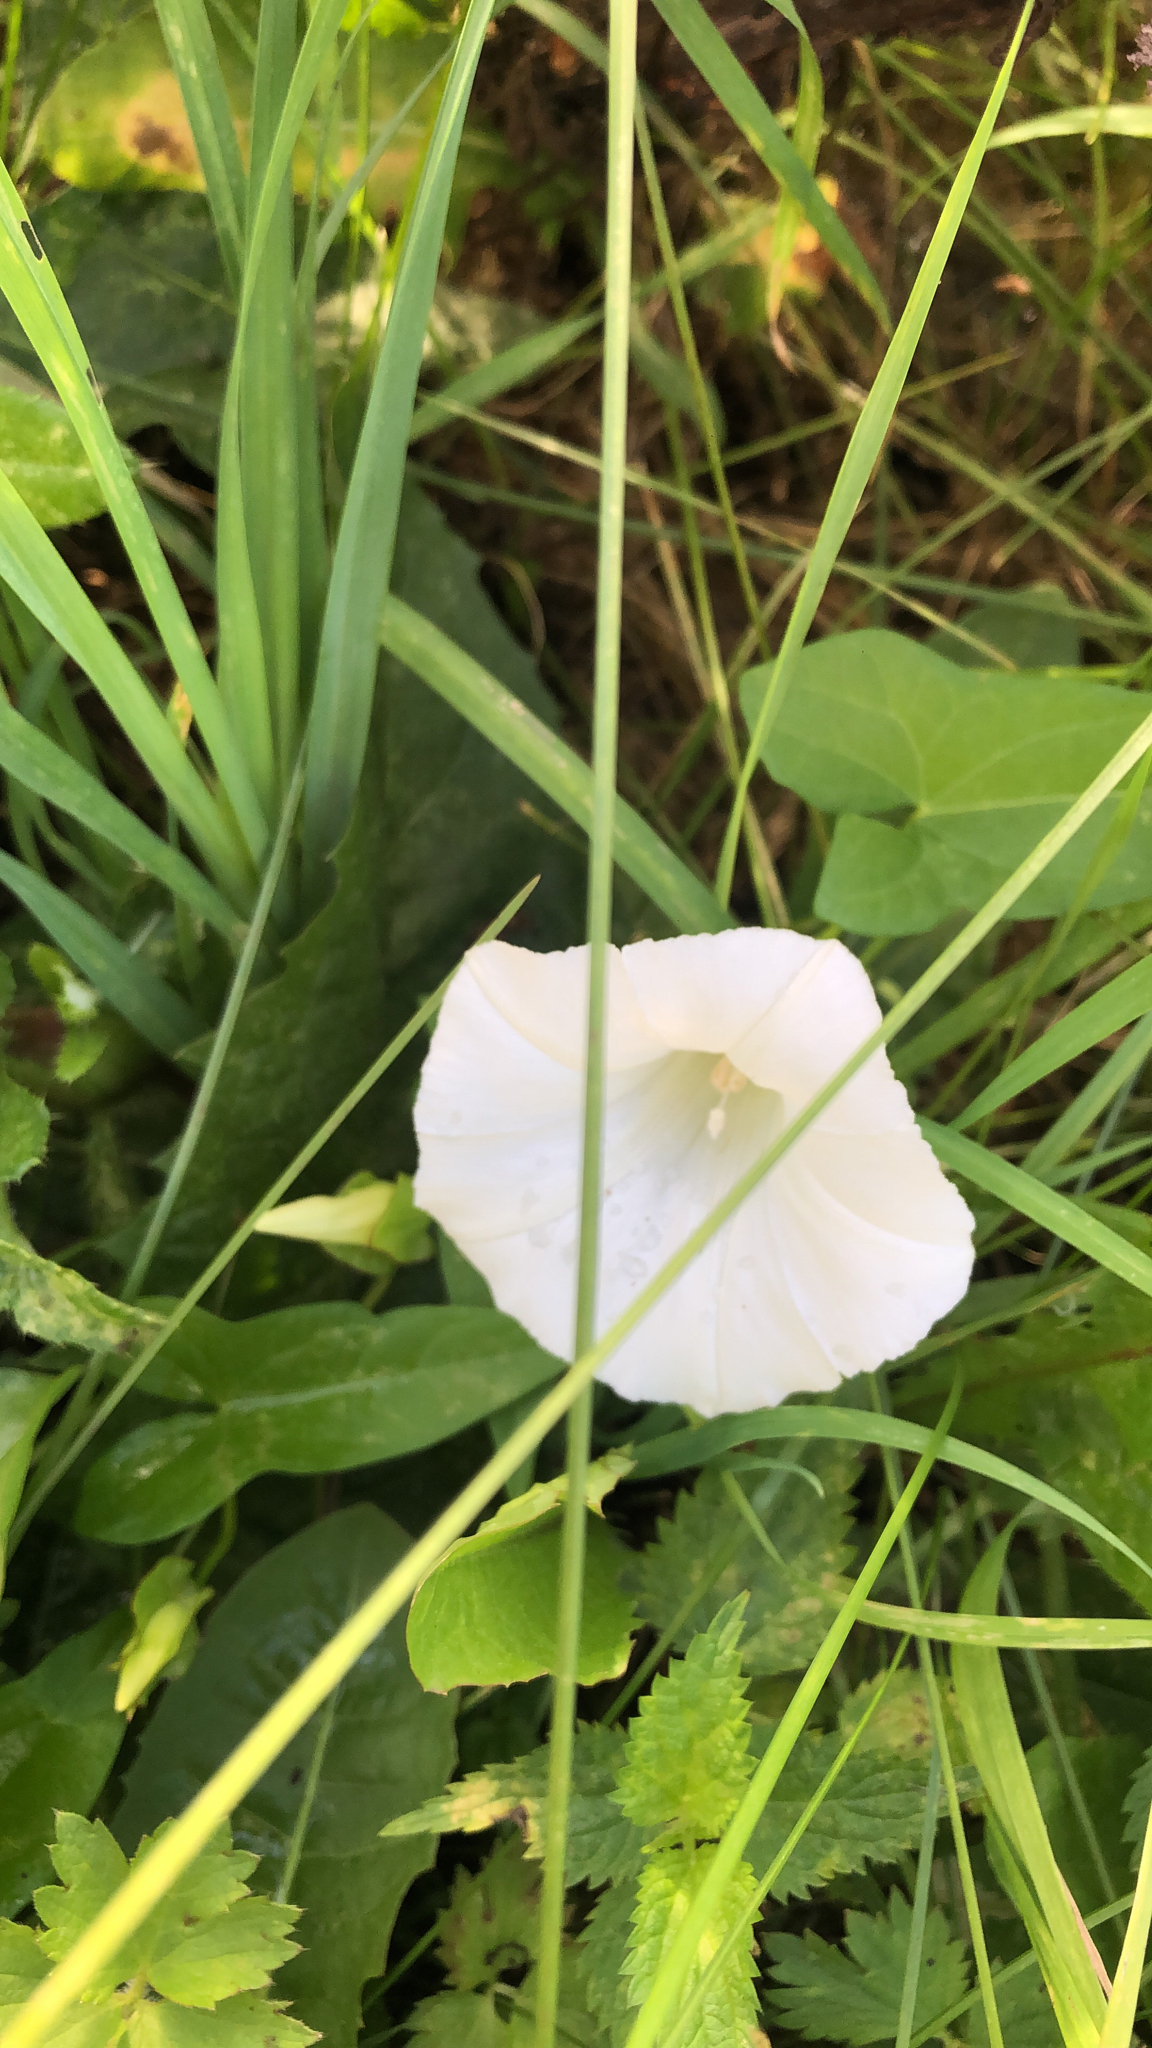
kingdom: Plantae
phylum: Tracheophyta
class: Magnoliopsida
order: Solanales
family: Convolvulaceae
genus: Calystegia
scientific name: Calystegia sepium
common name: Hedge bindweed
